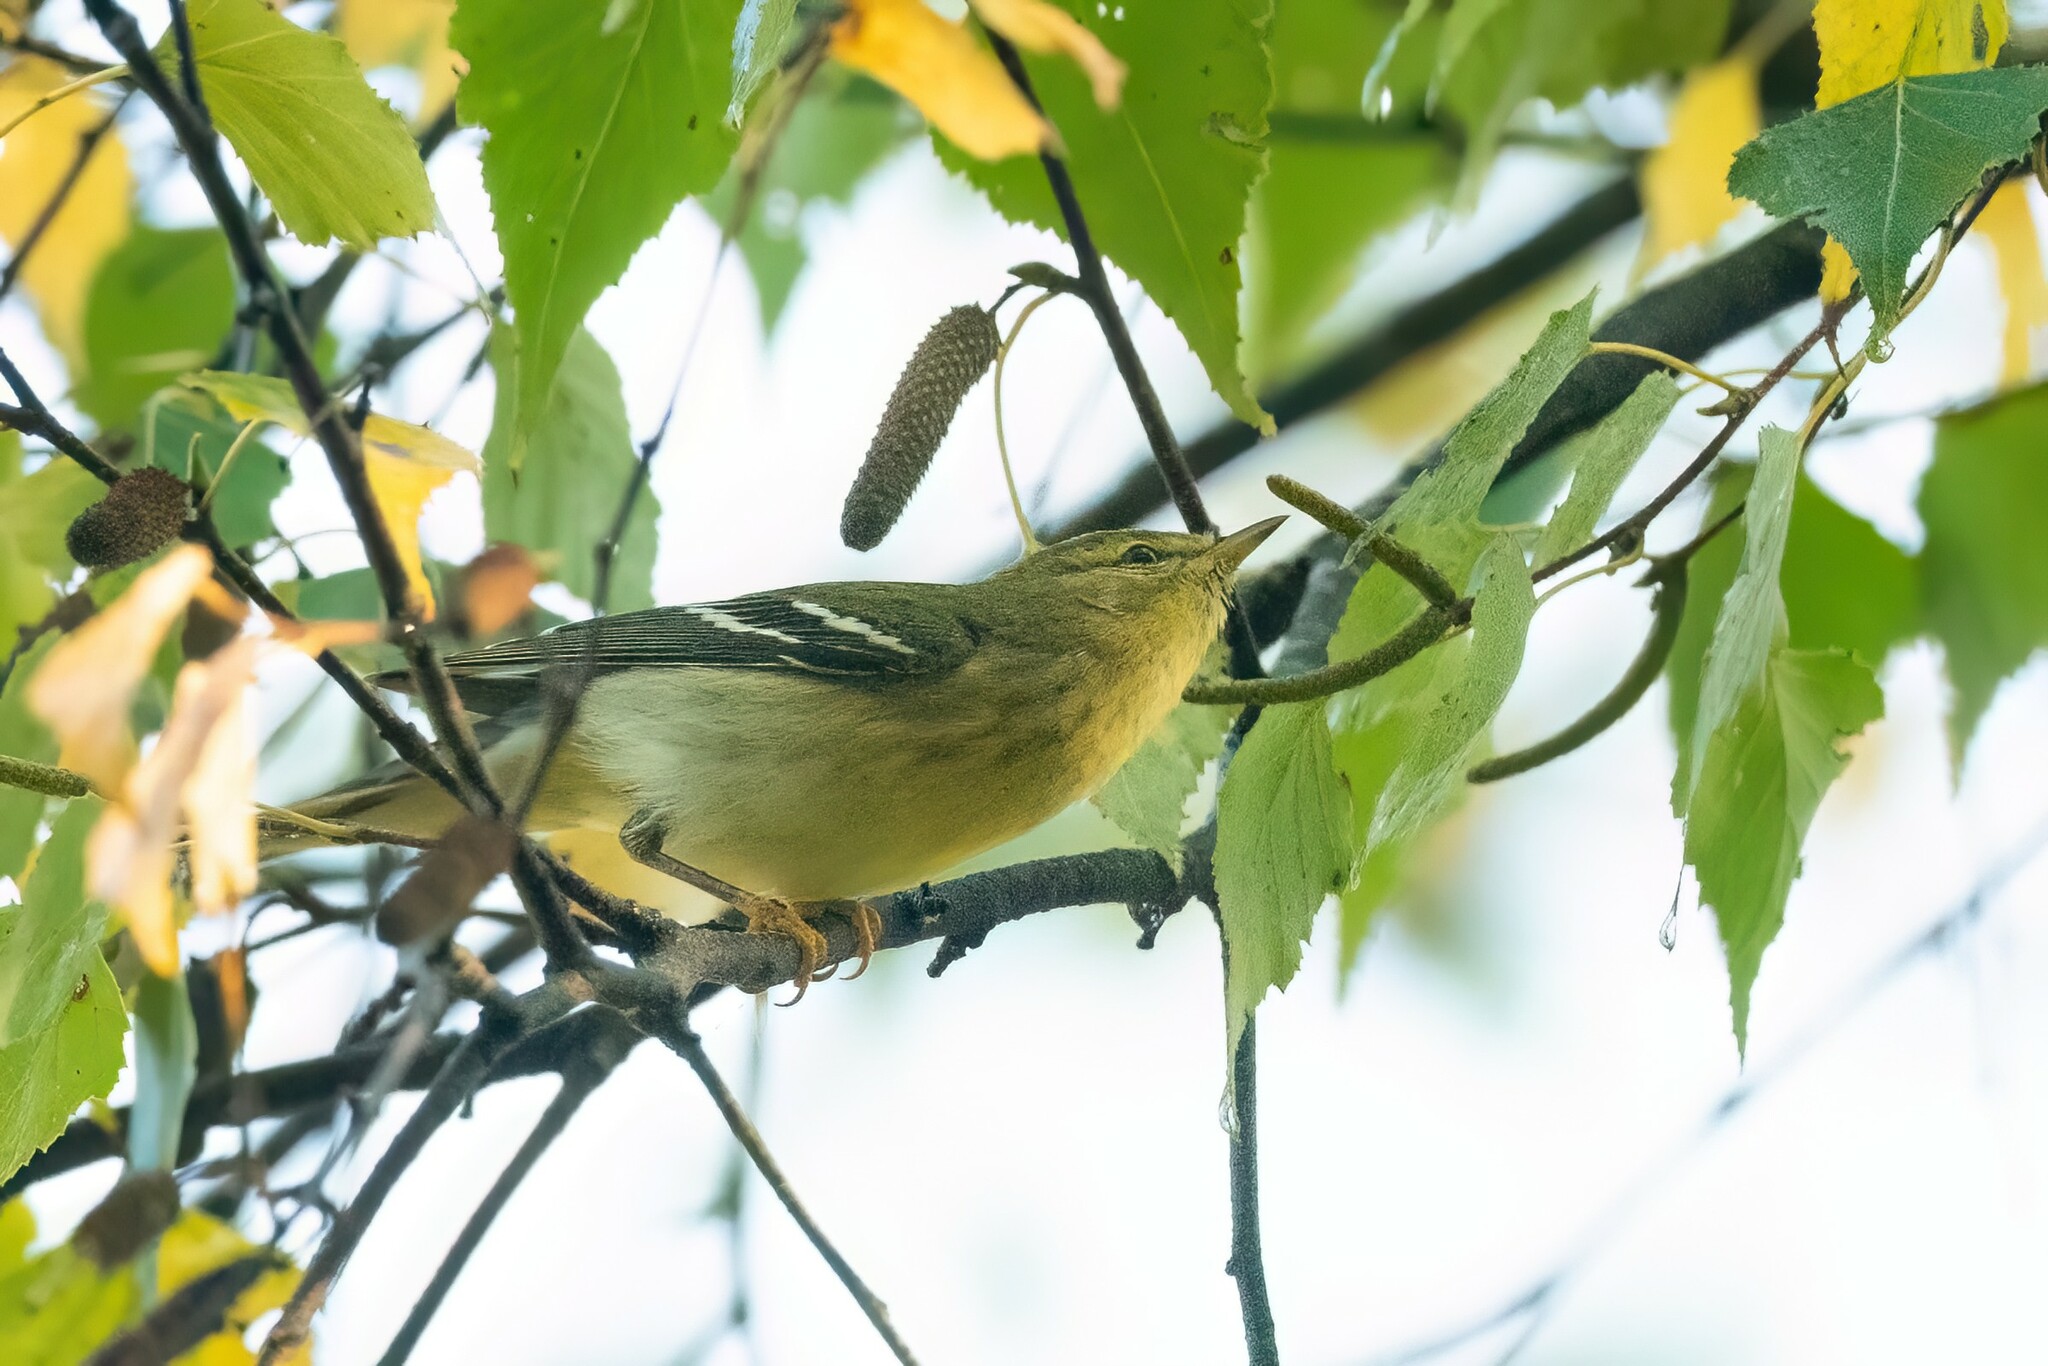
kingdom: Animalia
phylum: Chordata
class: Aves
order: Passeriformes
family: Parulidae
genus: Setophaga
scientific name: Setophaga striata
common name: Blackpoll warbler
